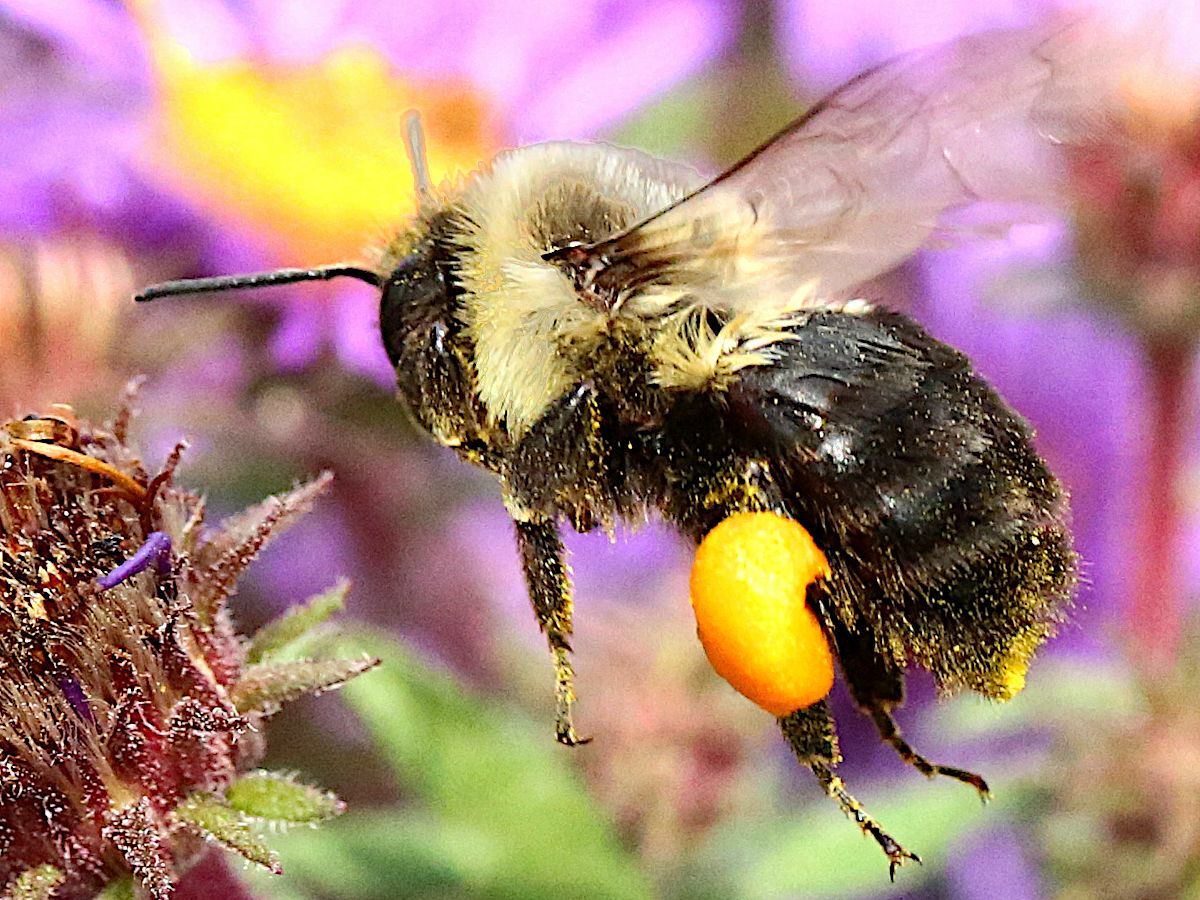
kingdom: Animalia
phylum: Arthropoda
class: Insecta
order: Hymenoptera
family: Apidae
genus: Bombus
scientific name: Bombus impatiens
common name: Common eastern bumble bee
